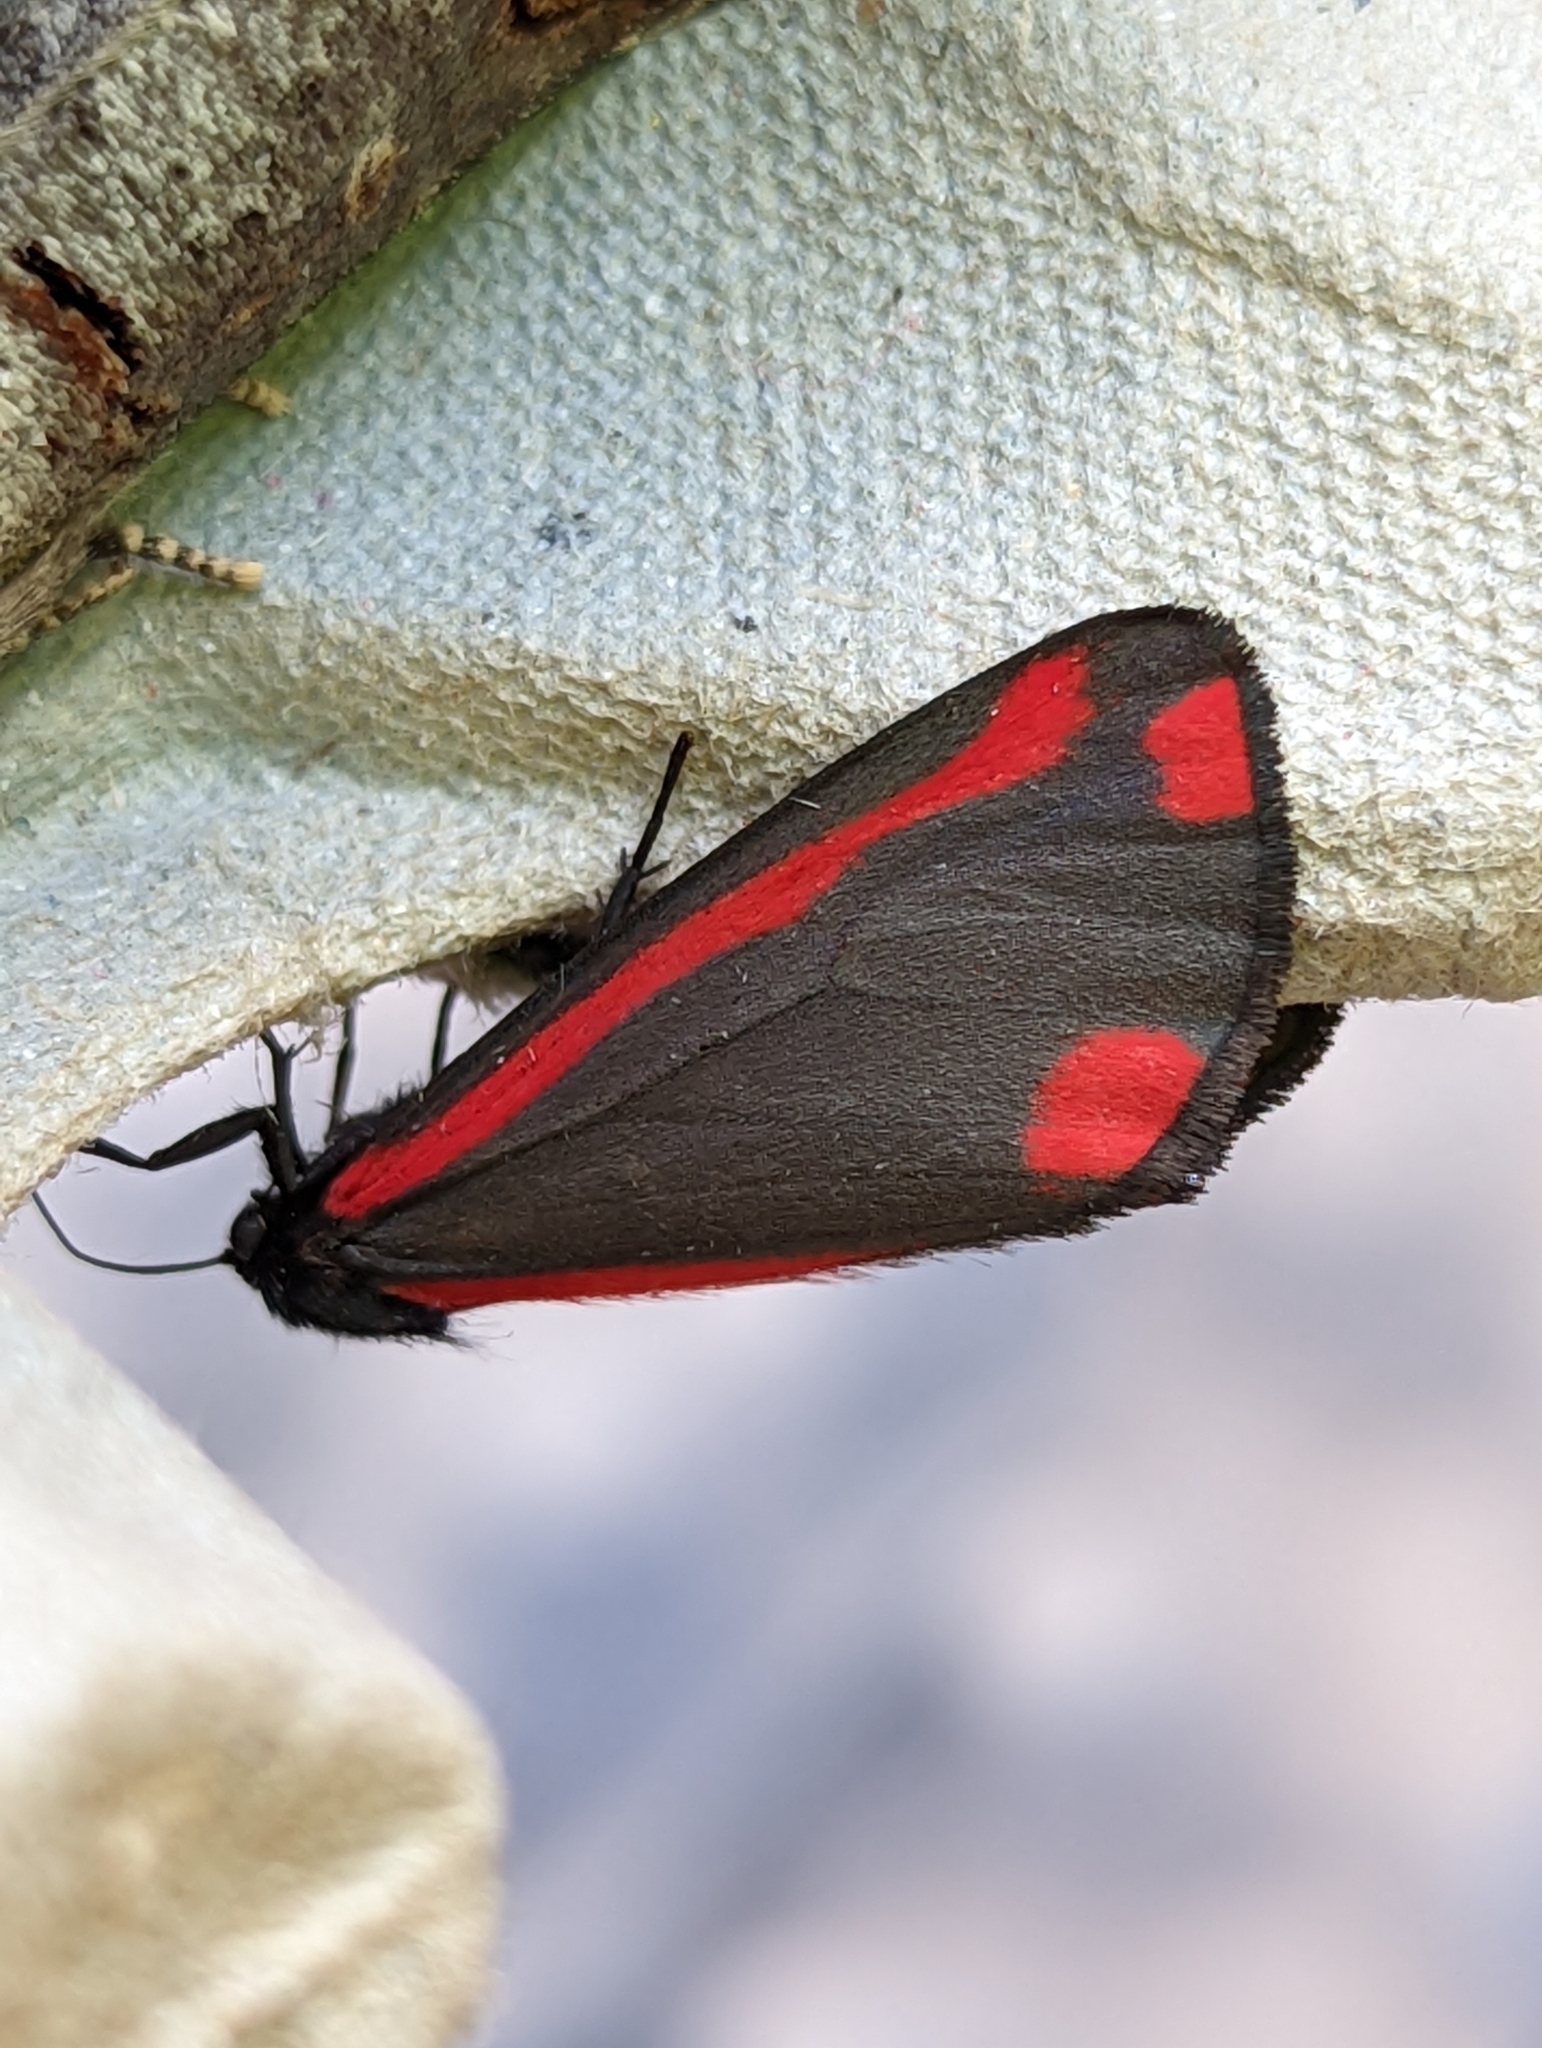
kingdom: Animalia
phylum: Arthropoda
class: Insecta
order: Lepidoptera
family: Erebidae
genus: Tyria
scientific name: Tyria jacobaeae
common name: Cinnabar
